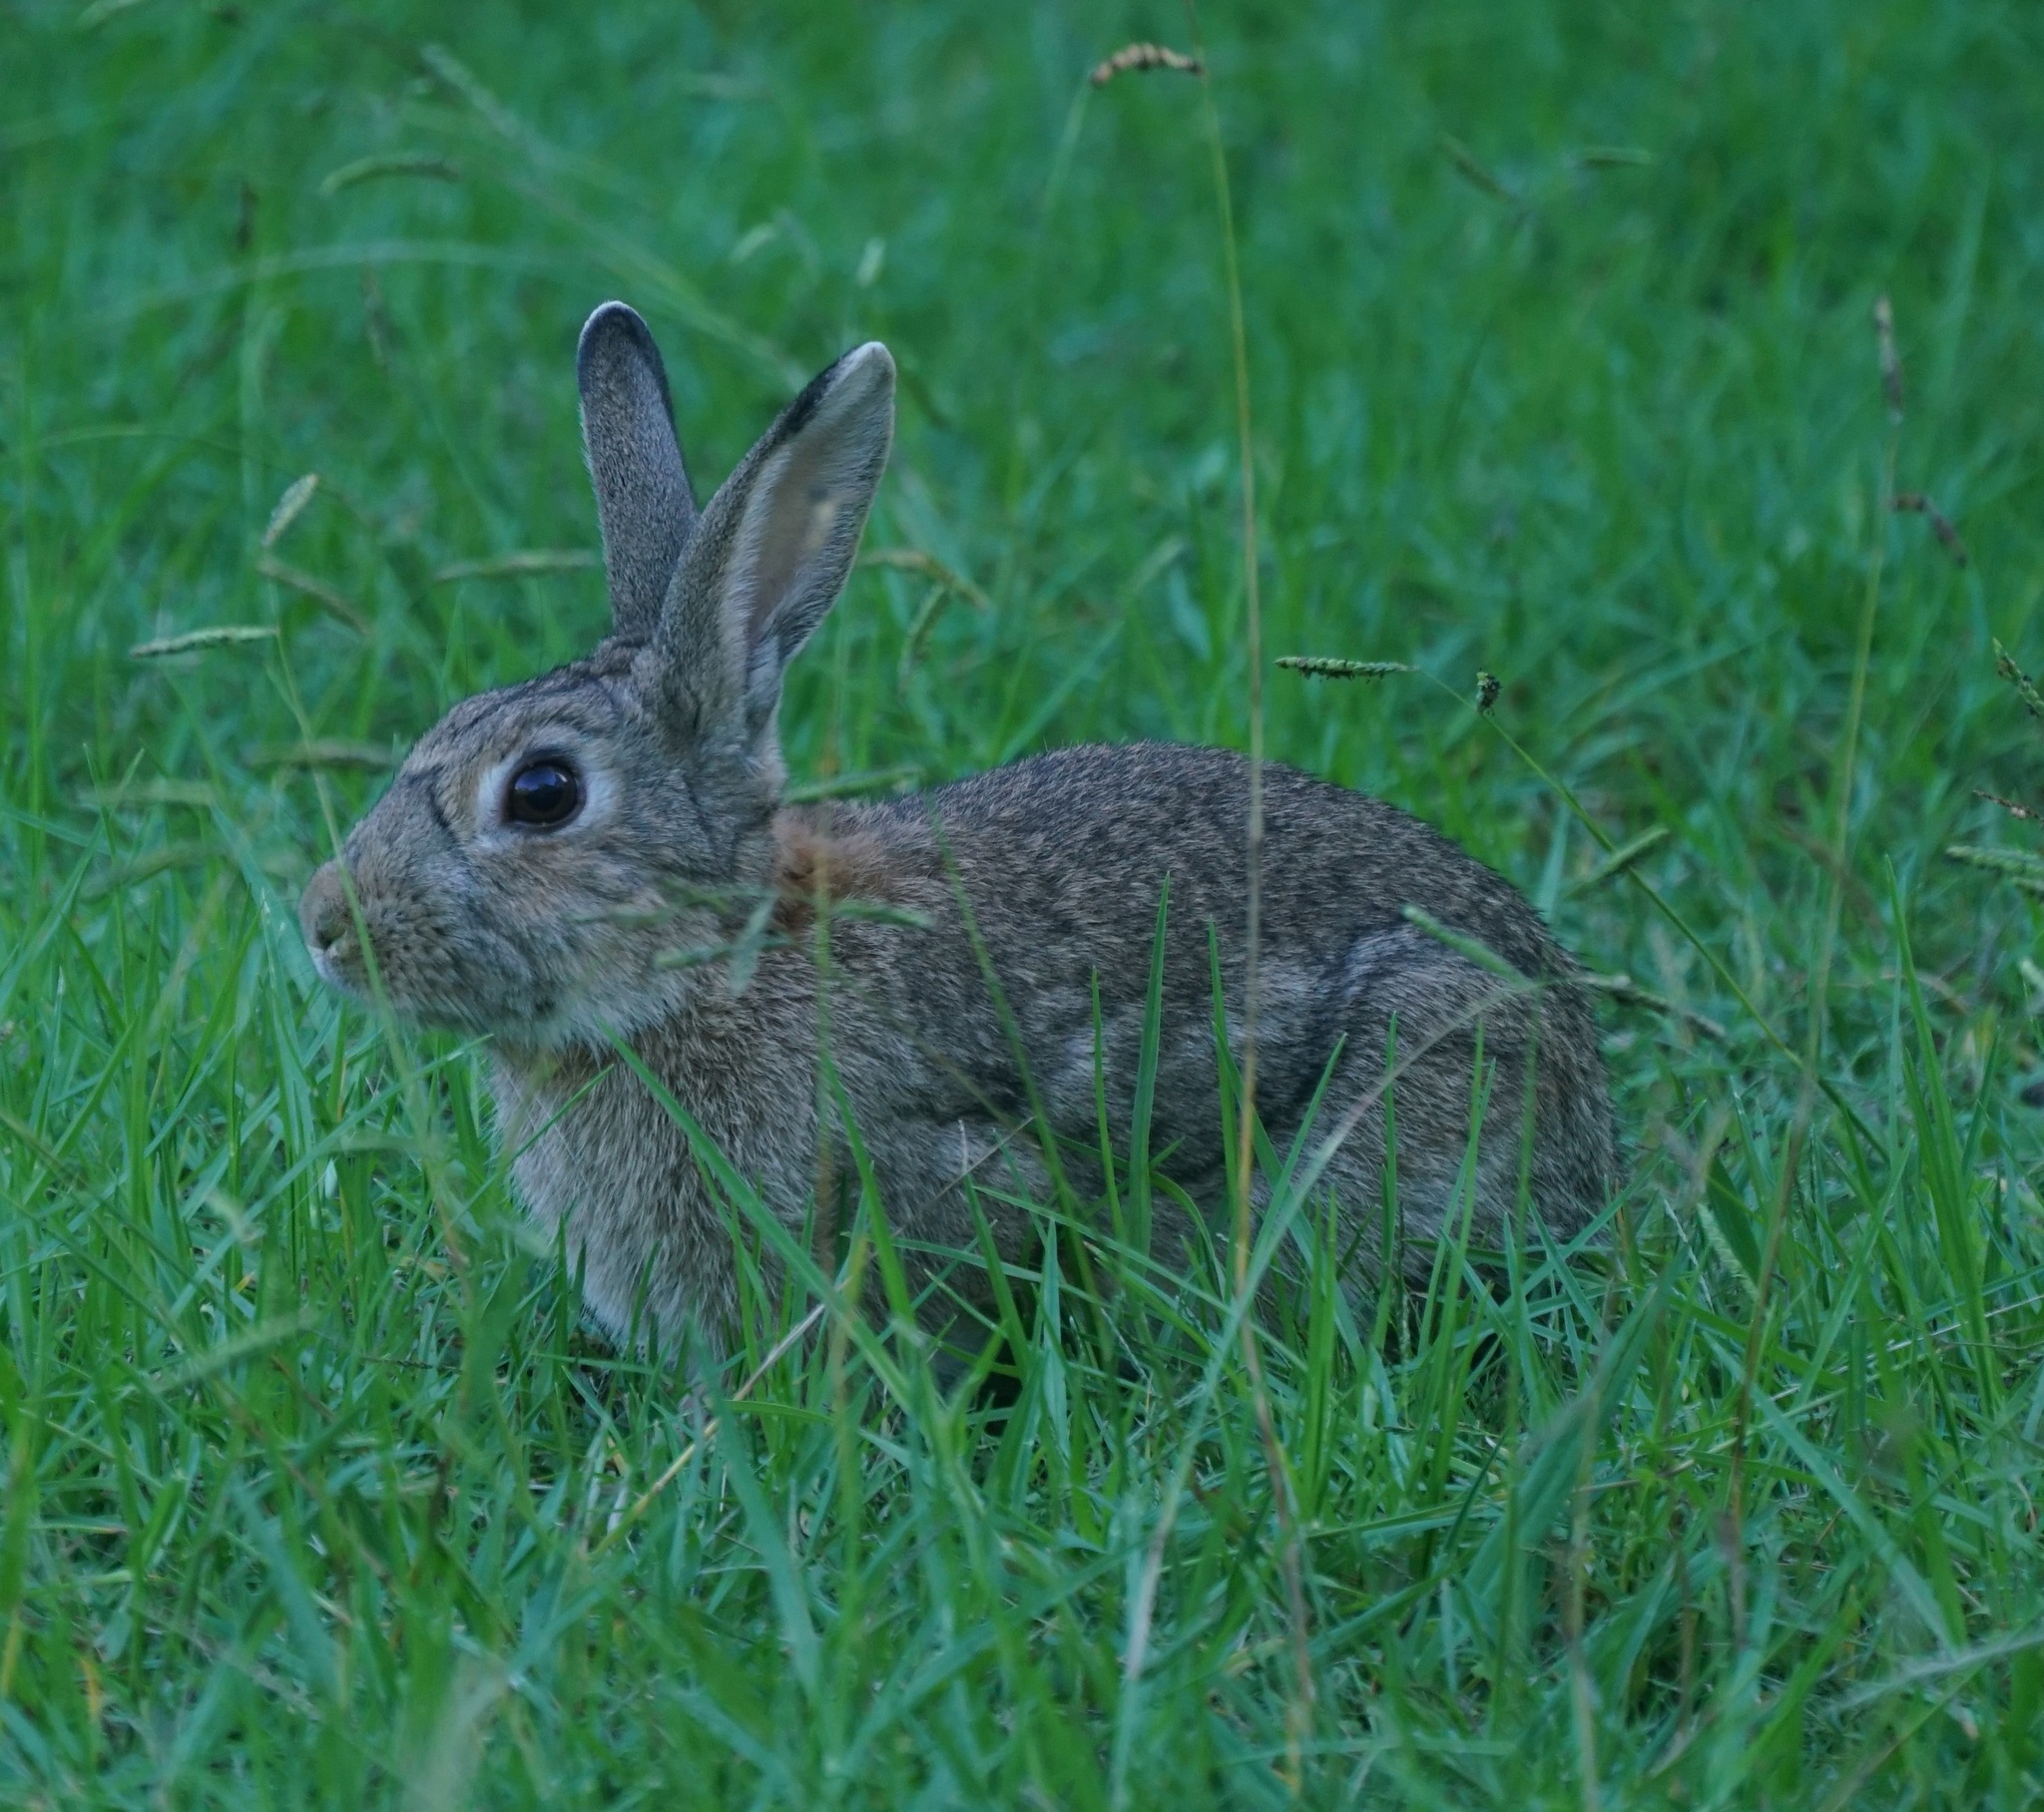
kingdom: Animalia
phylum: Chordata
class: Mammalia
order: Lagomorpha
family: Leporidae
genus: Oryctolagus
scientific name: Oryctolagus cuniculus
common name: European rabbit
